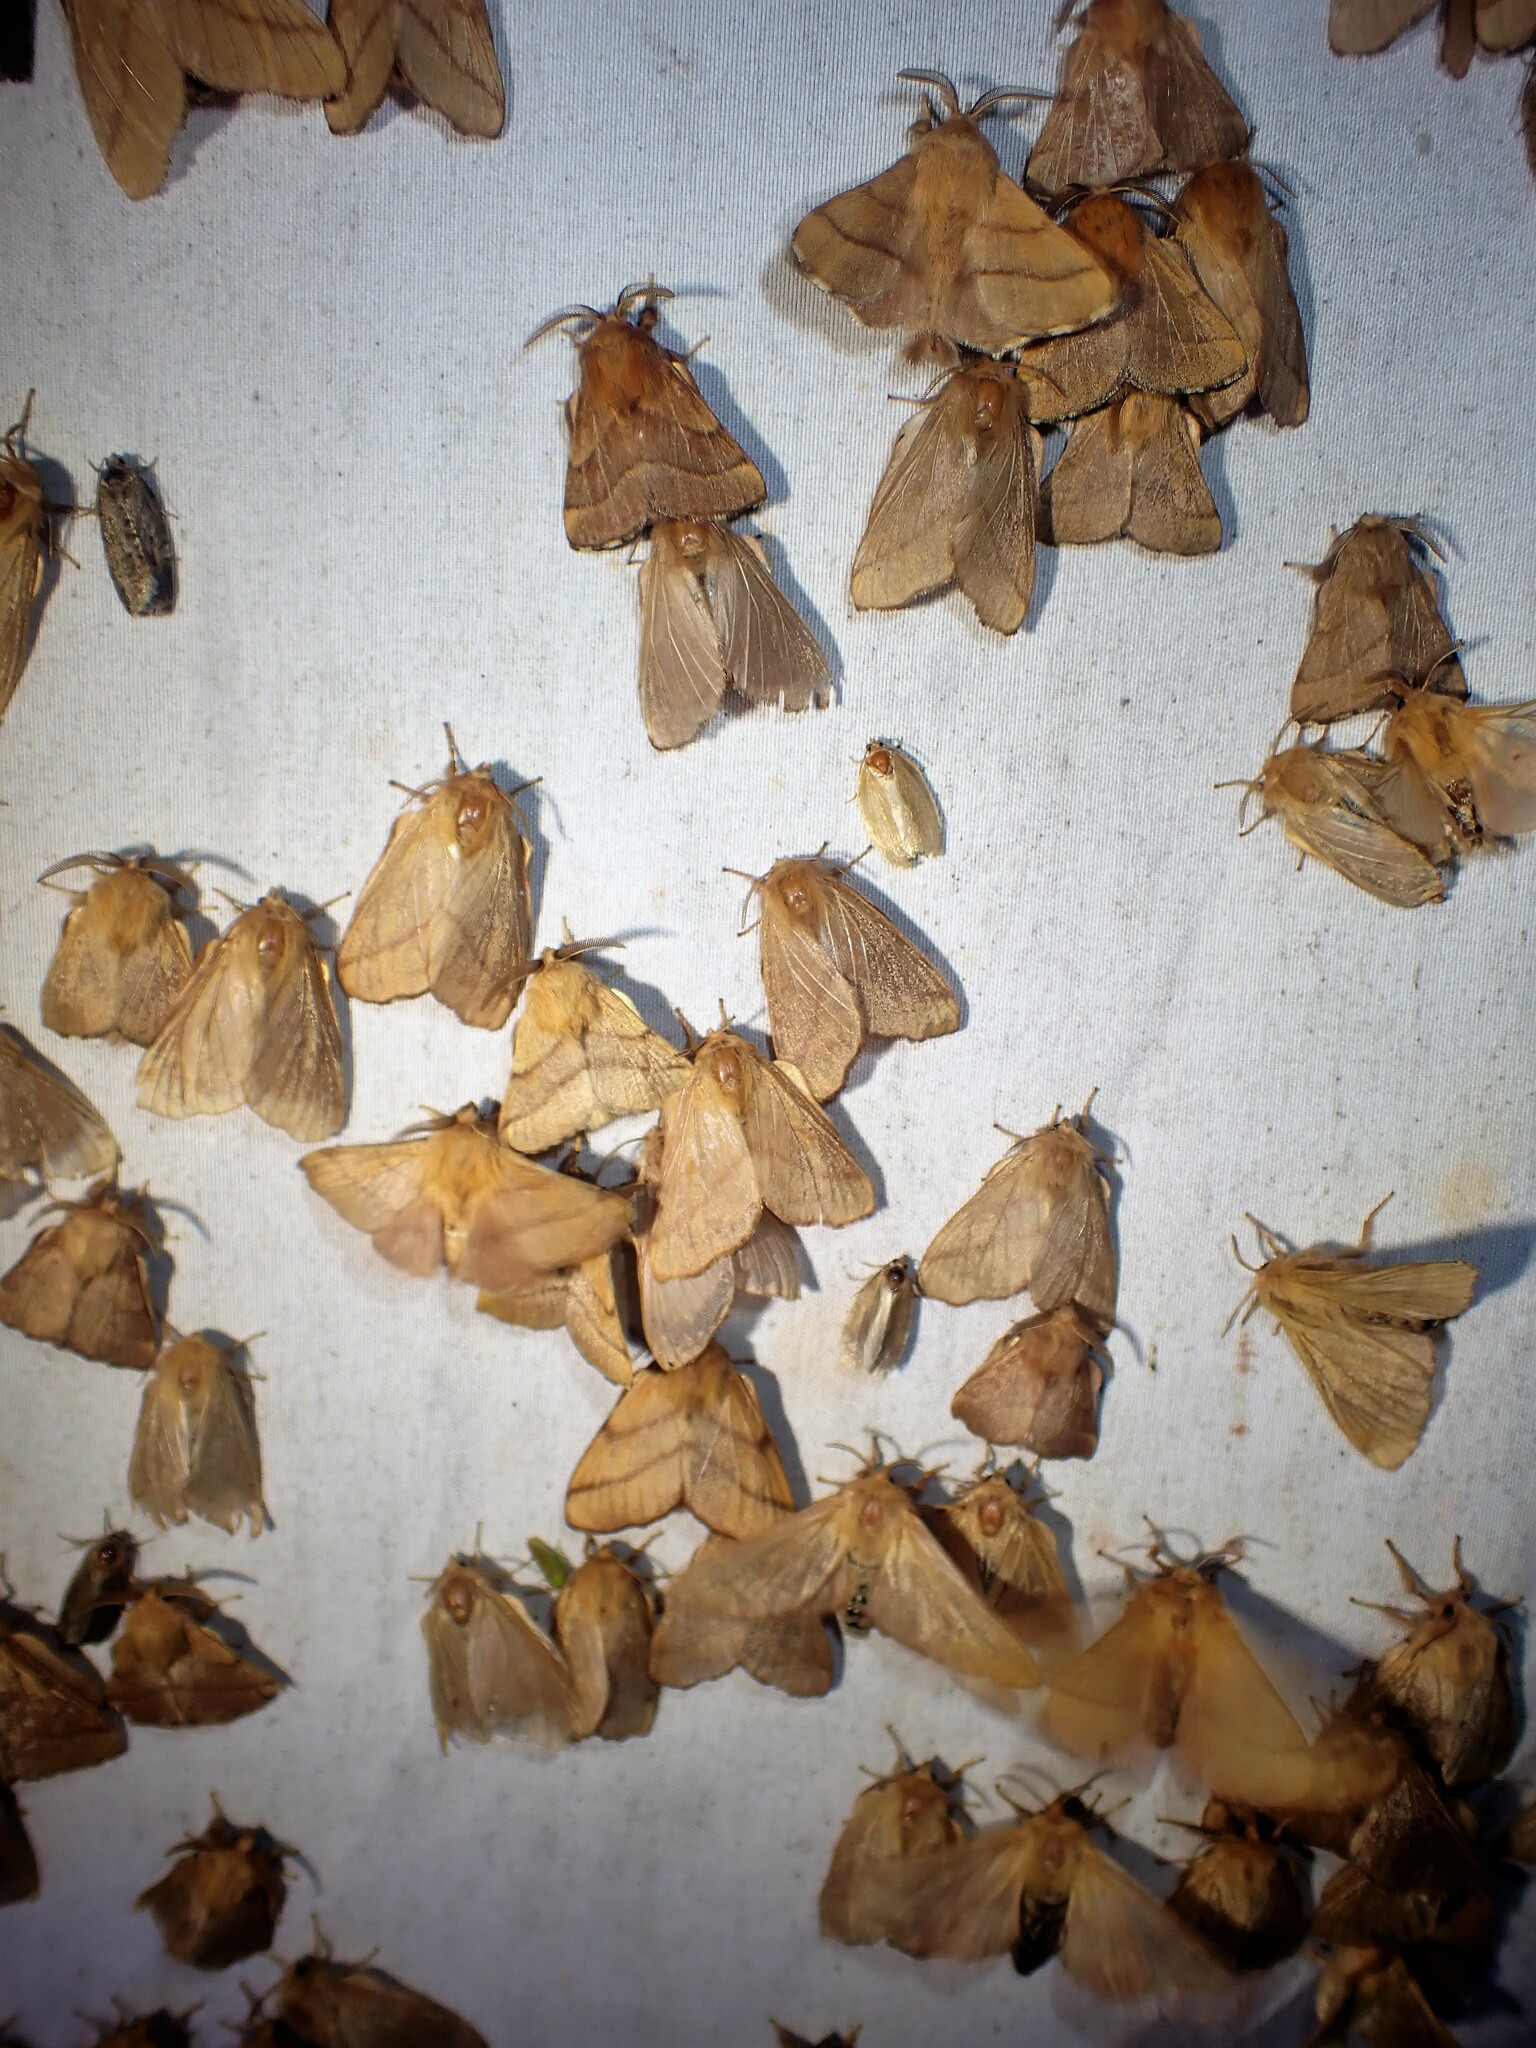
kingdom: Animalia
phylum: Arthropoda
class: Insecta
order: Lepidoptera
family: Lasiocampidae
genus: Malacosoma
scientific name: Malacosoma disstria
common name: Forest tent caterpillar
